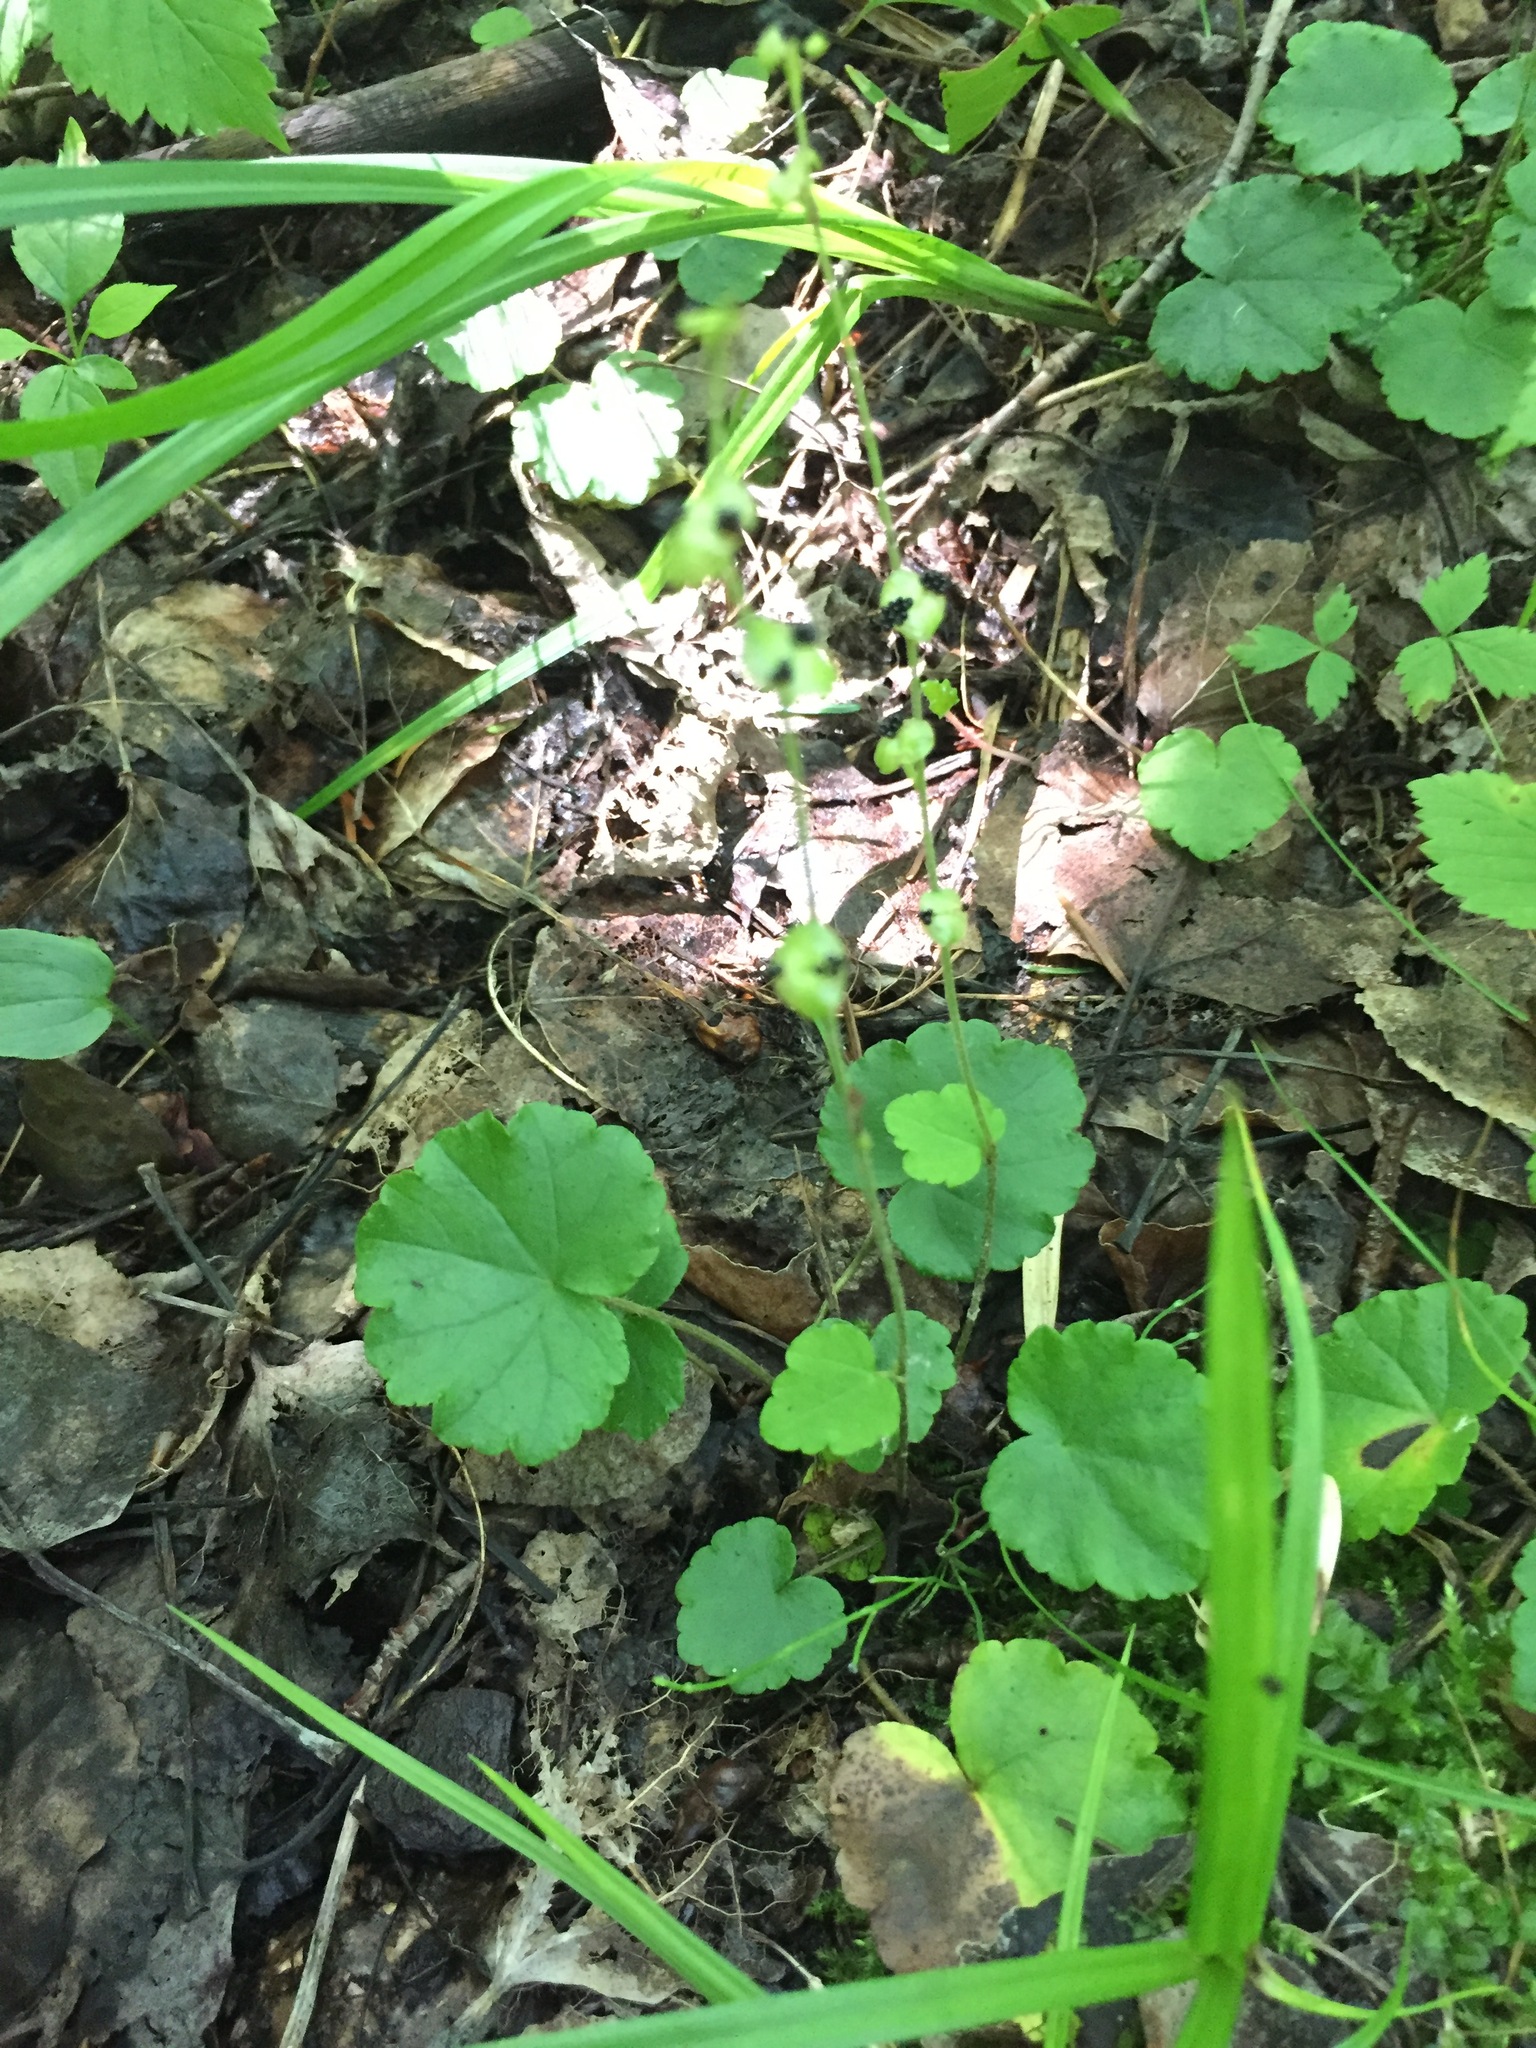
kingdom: Plantae
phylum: Tracheophyta
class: Magnoliopsida
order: Saxifragales
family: Saxifragaceae
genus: Mitella
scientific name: Mitella nuda
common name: Bare-stemmed bishop's-cap
